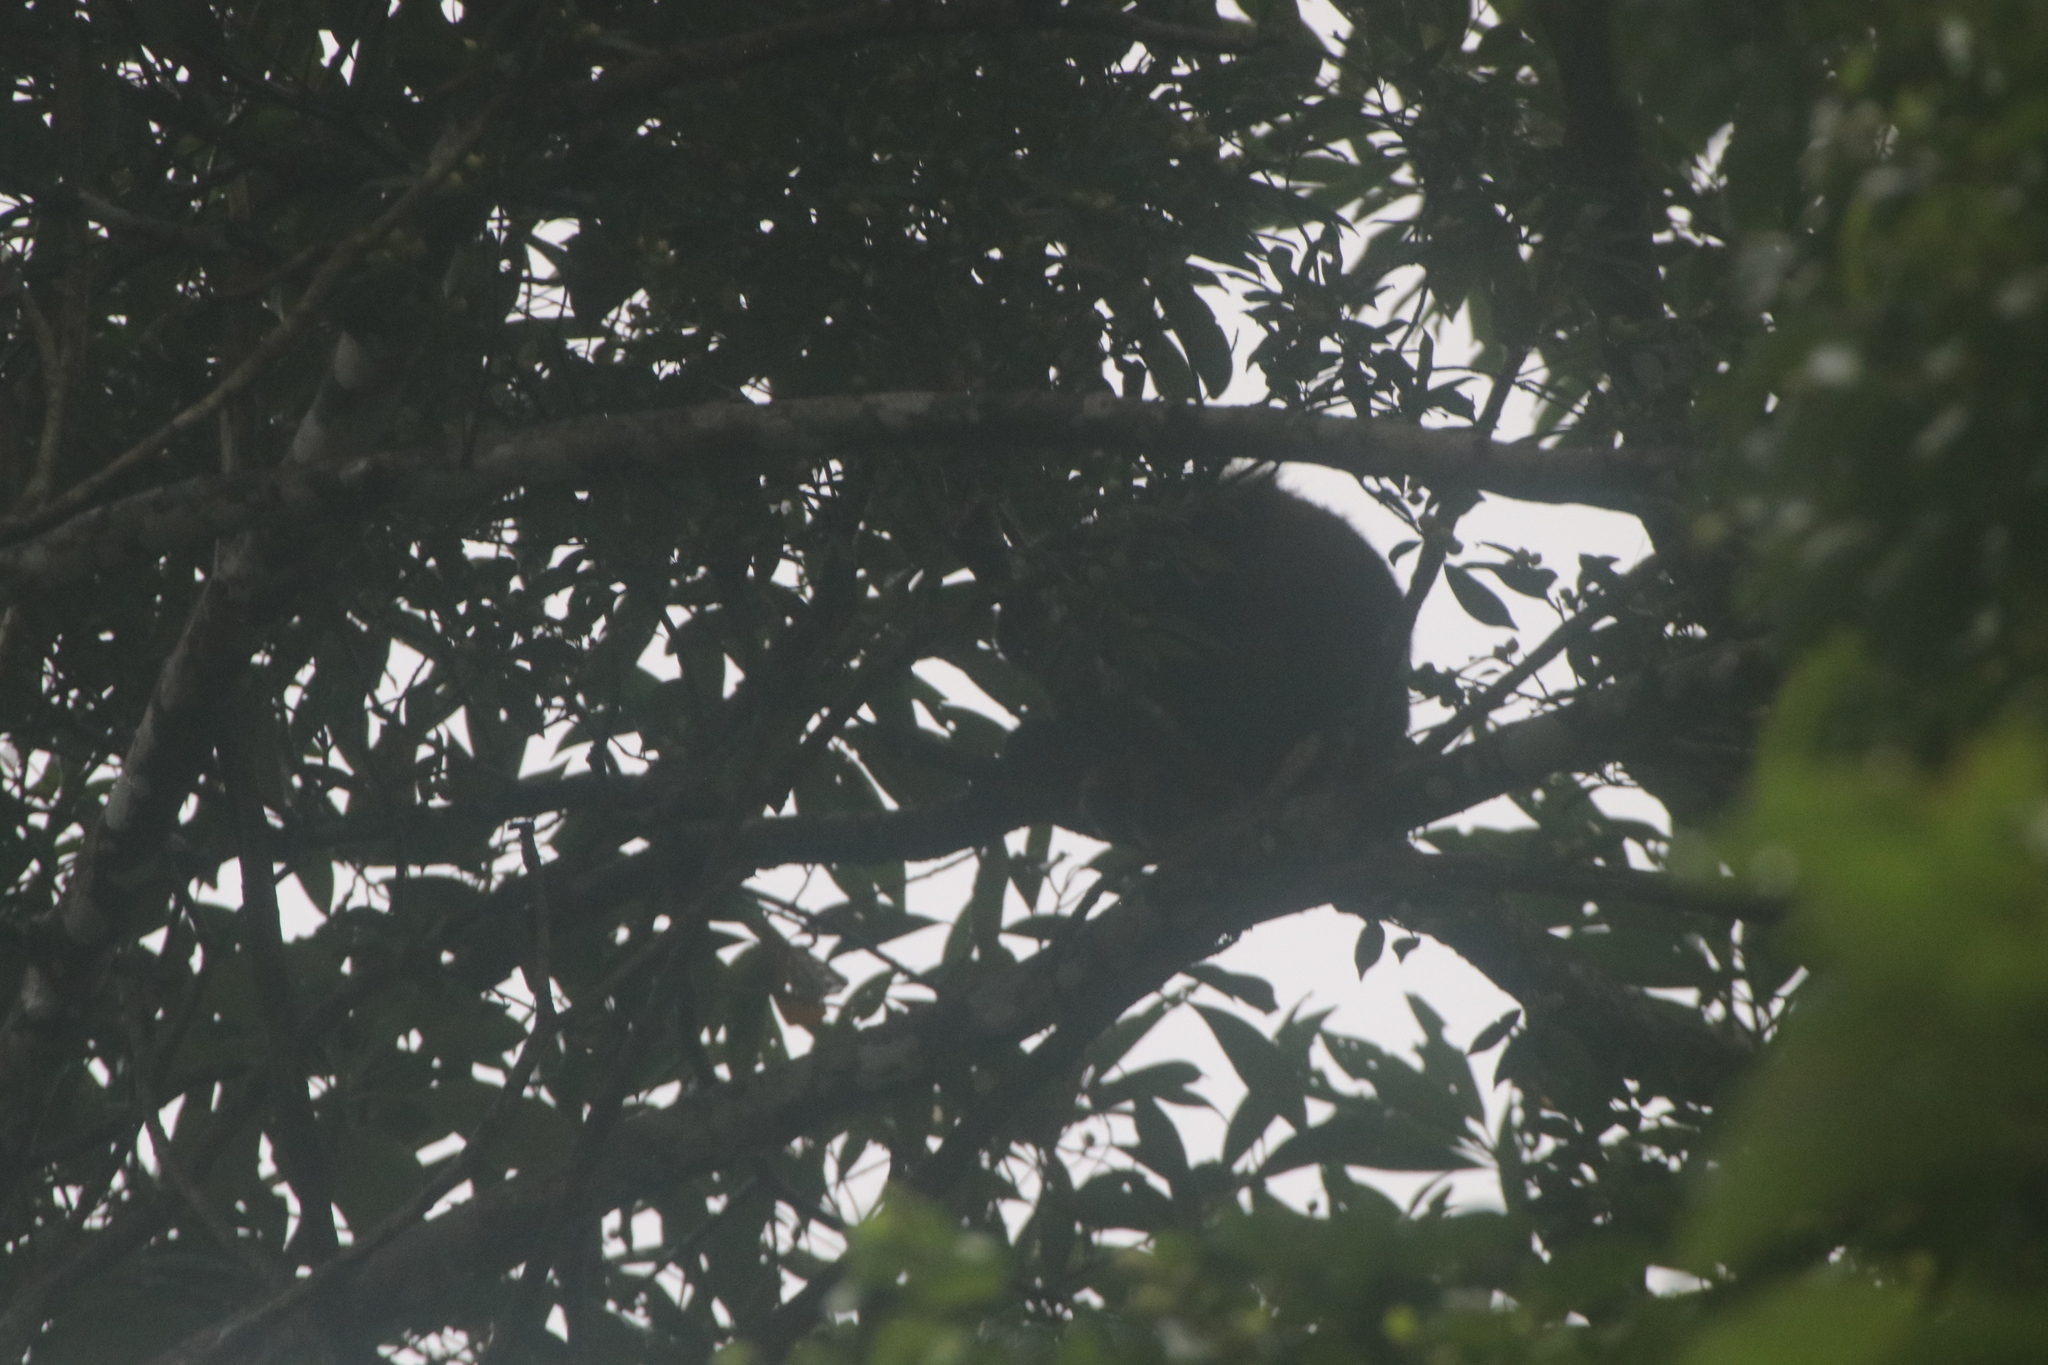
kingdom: Animalia
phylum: Chordata
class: Mammalia
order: Primates
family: Atelidae
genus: Alouatta
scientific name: Alouatta palliata
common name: Mantled howler
